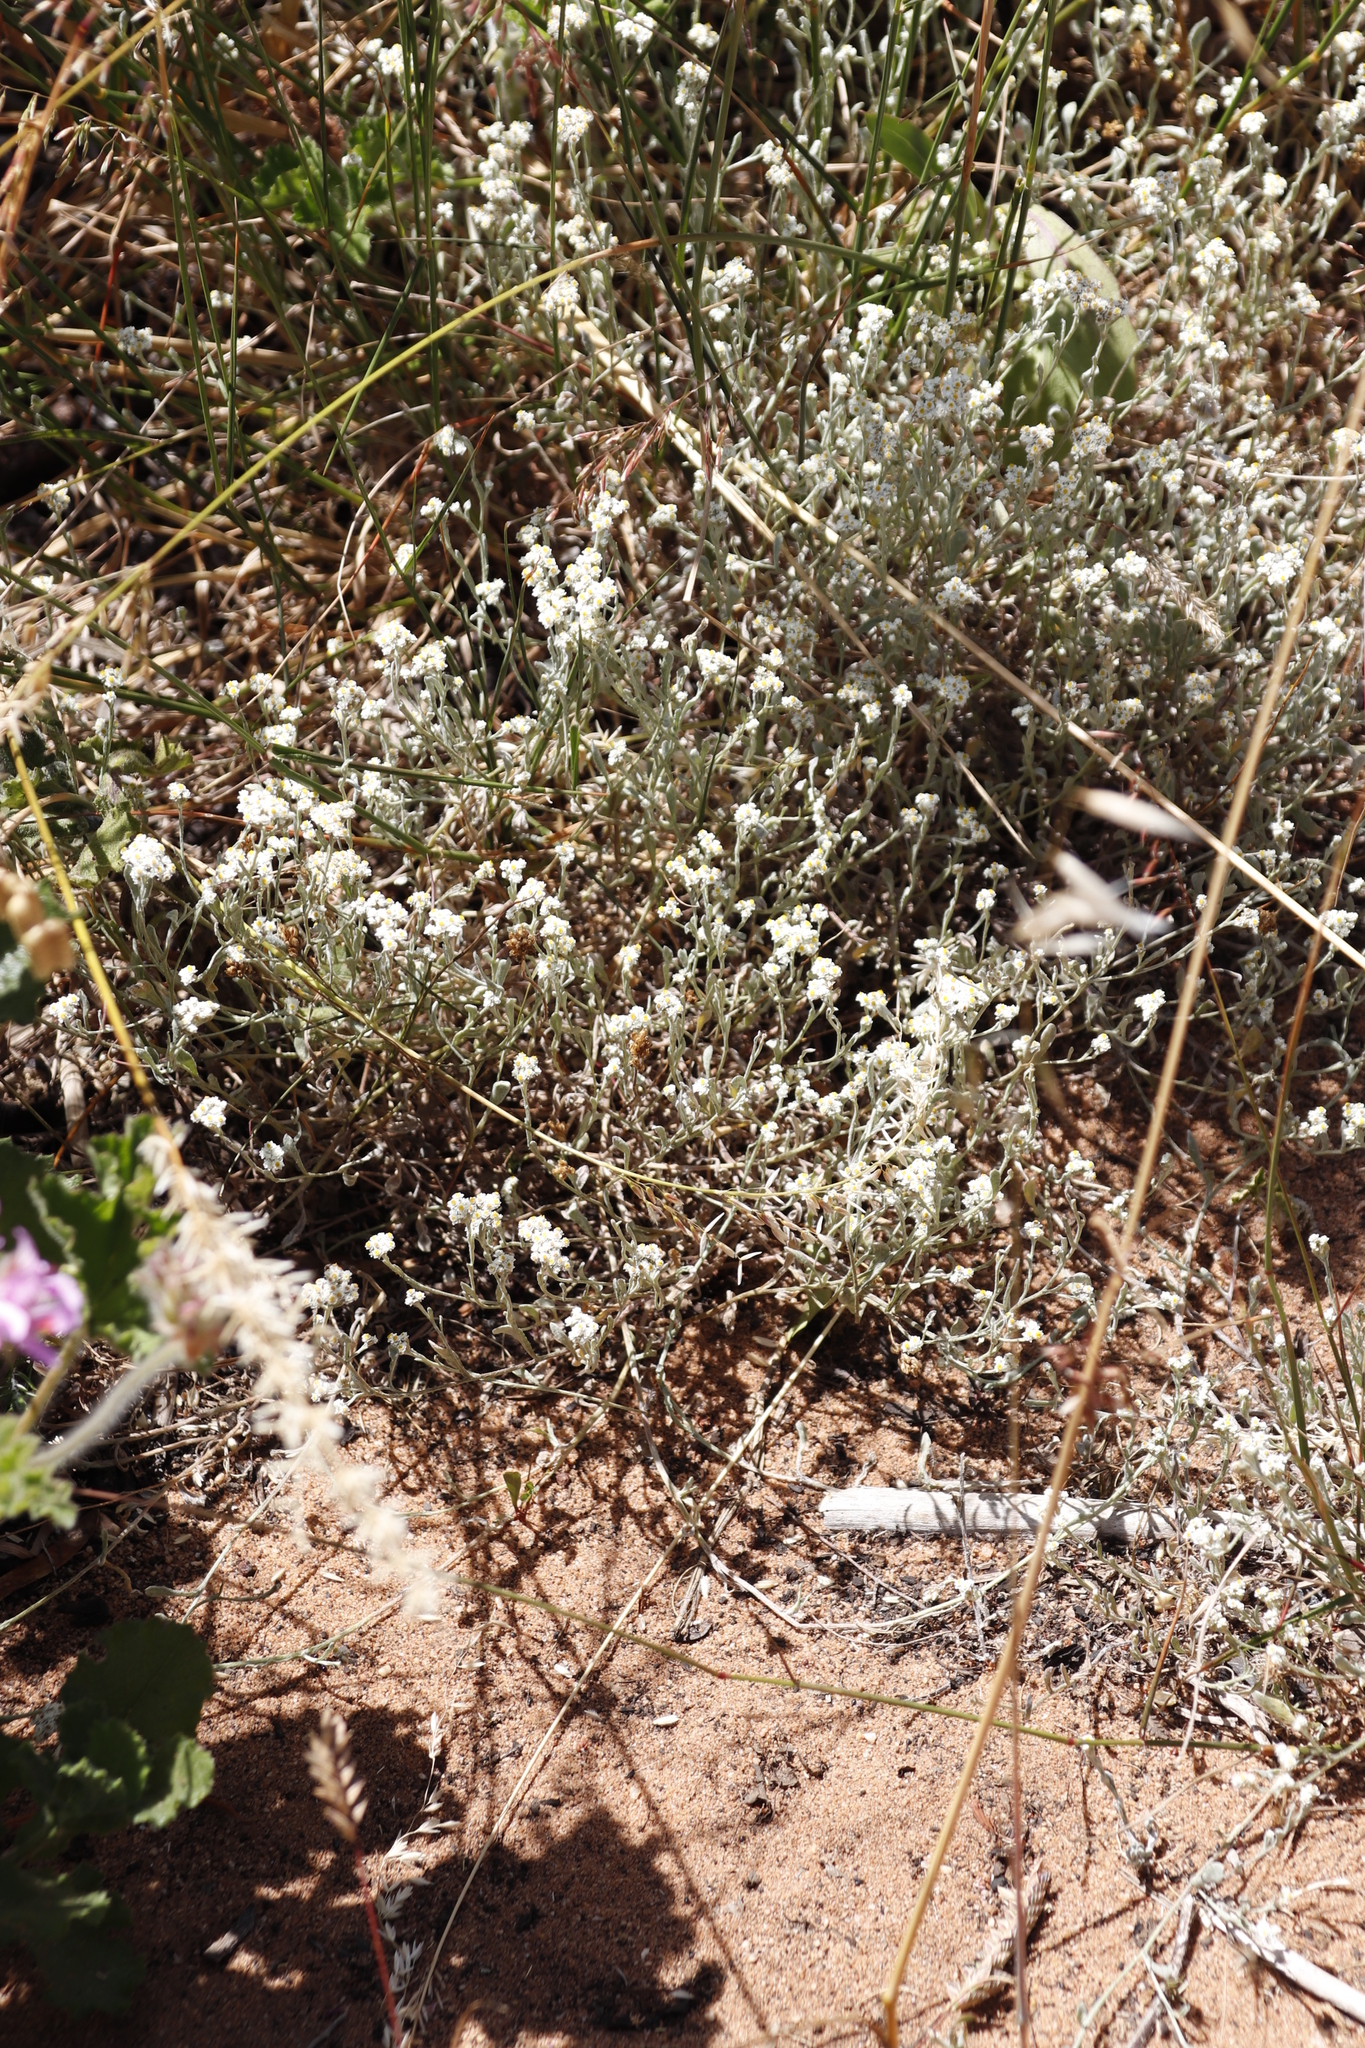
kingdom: Plantae
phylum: Tracheophyta
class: Magnoliopsida
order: Asterales
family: Asteraceae
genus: Helichrysum
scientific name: Helichrysum crispum
